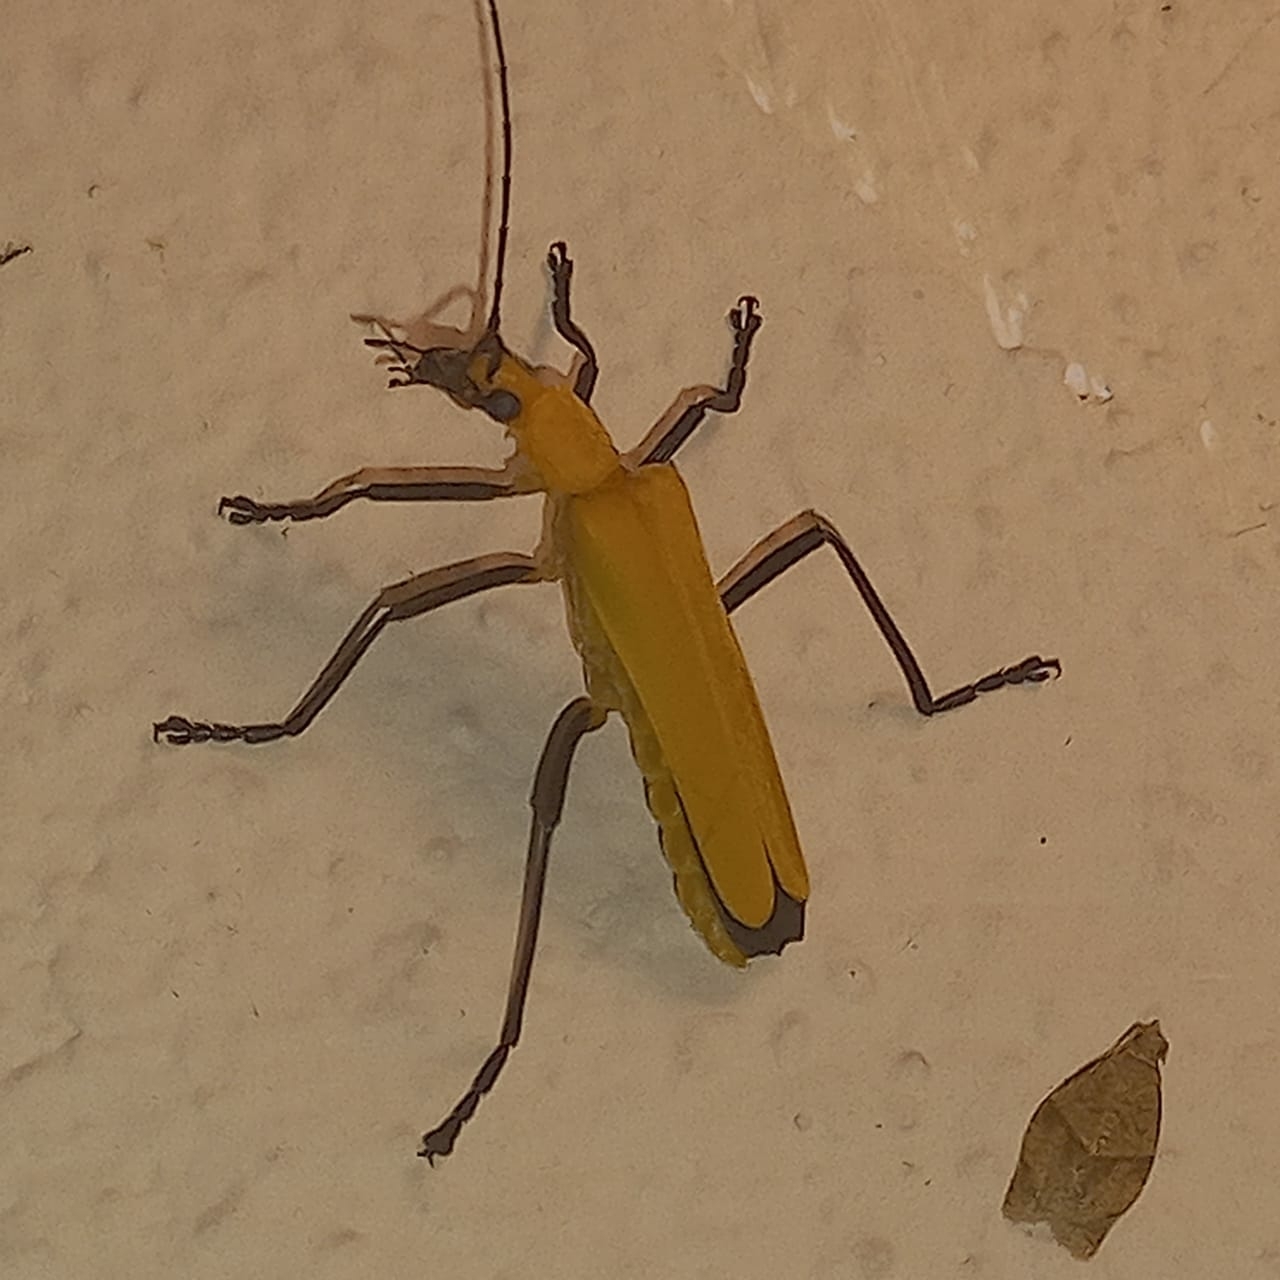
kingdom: Animalia
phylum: Arthropoda
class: Insecta
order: Coleoptera
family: Cantharidae
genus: Chauliognathus
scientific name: Chauliognathus sulphureus
